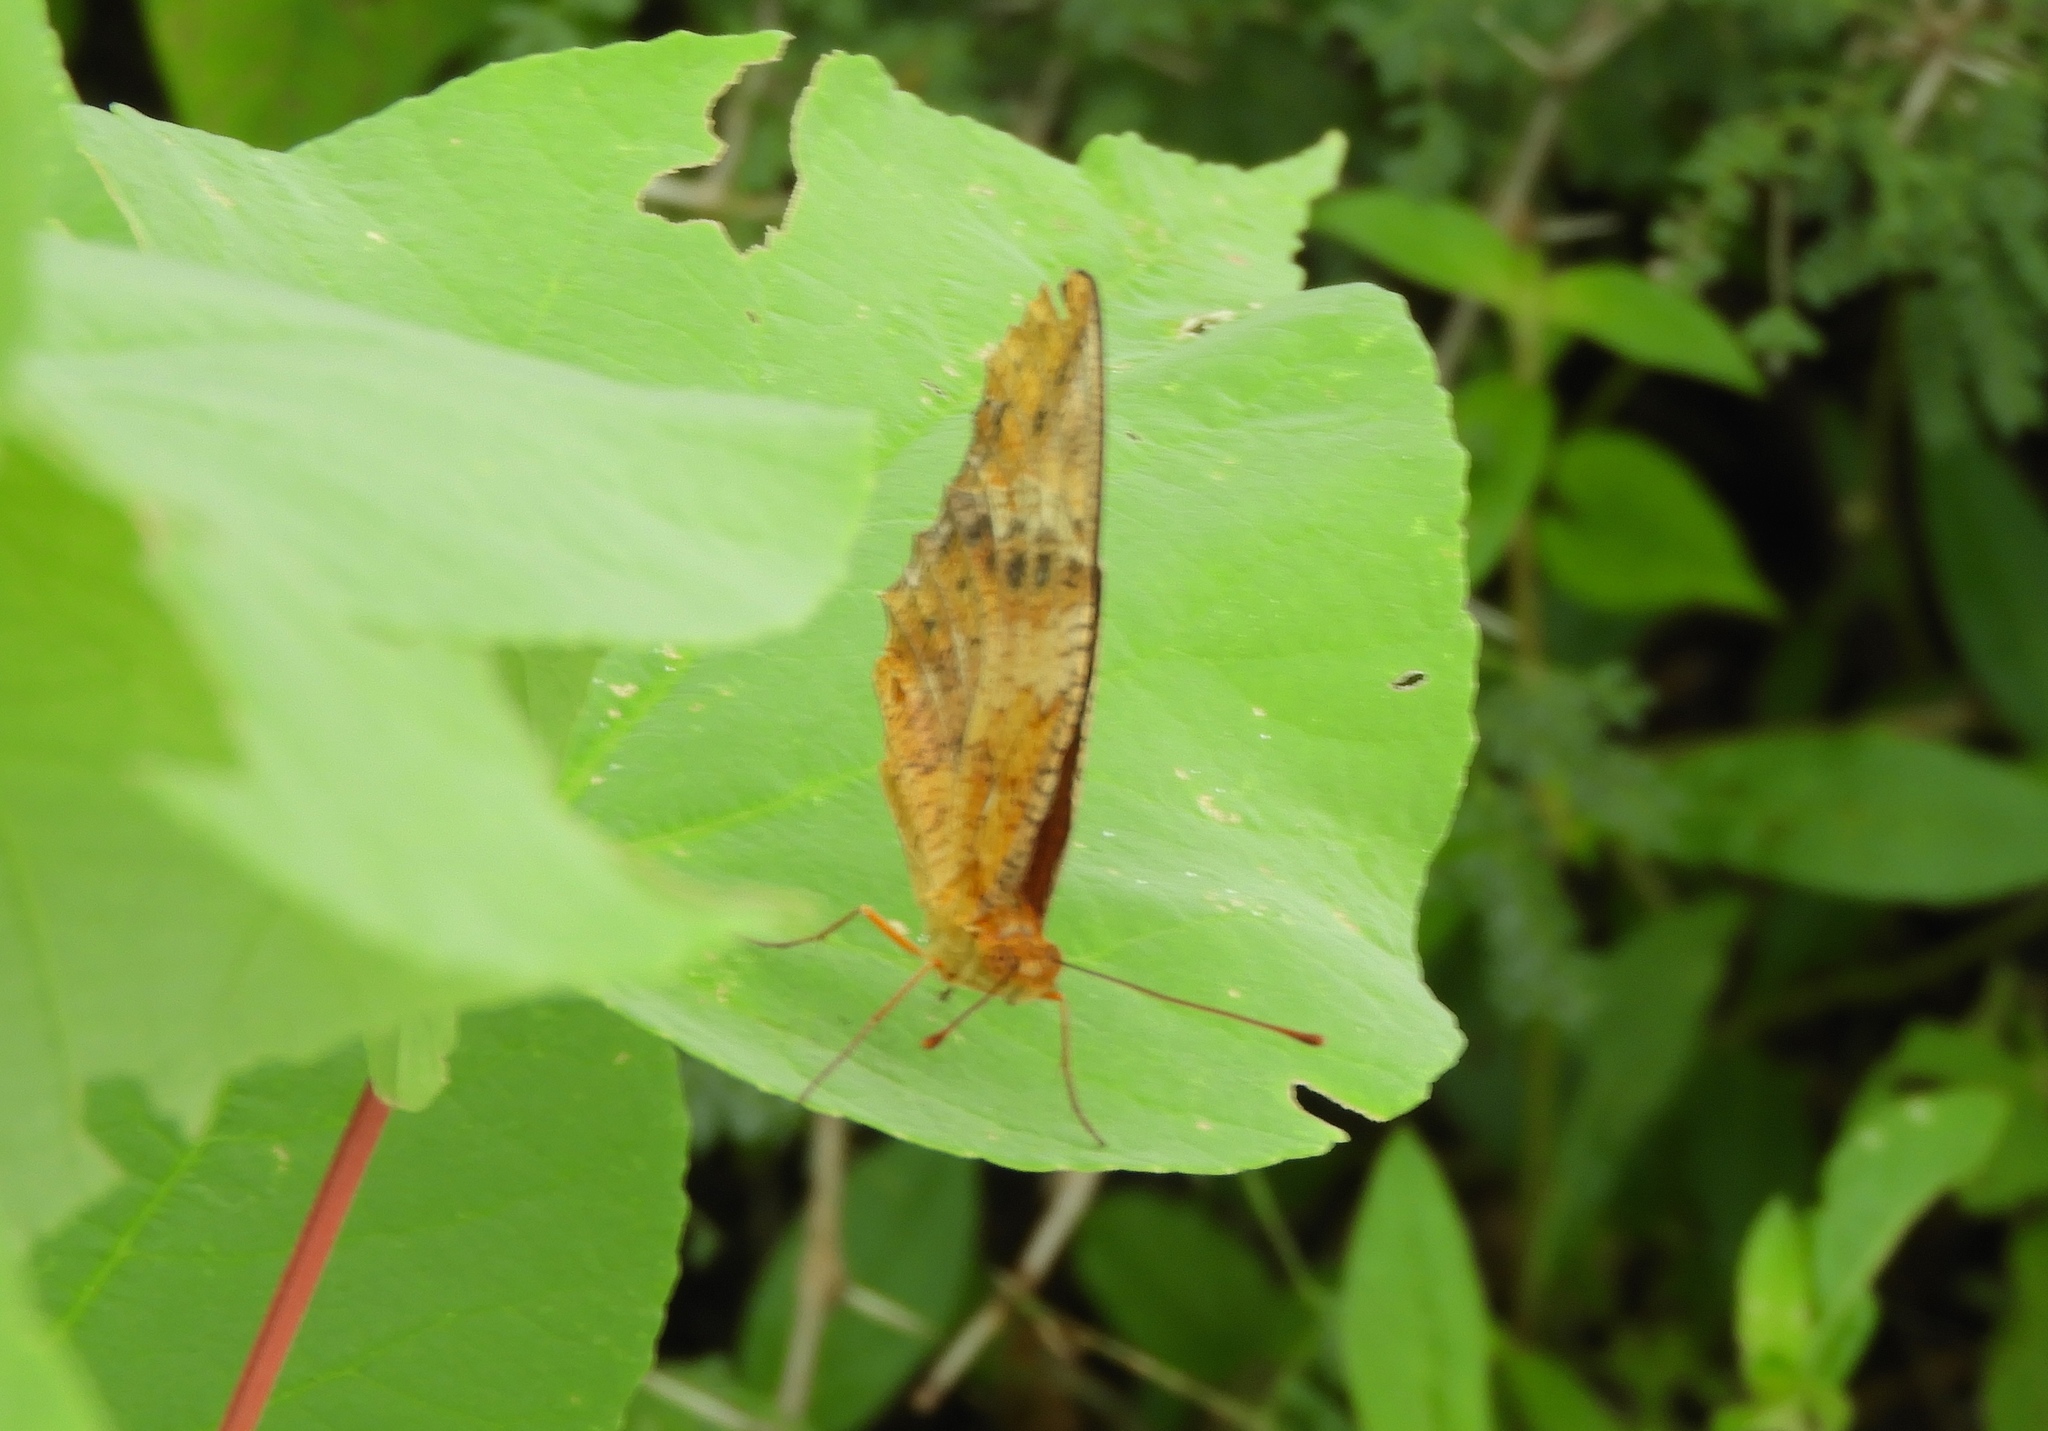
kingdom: Animalia
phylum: Arthropoda
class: Insecta
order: Lepidoptera
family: Nymphalidae
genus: Euptoieta
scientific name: Euptoieta hegesia
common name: Mexican fritillary
